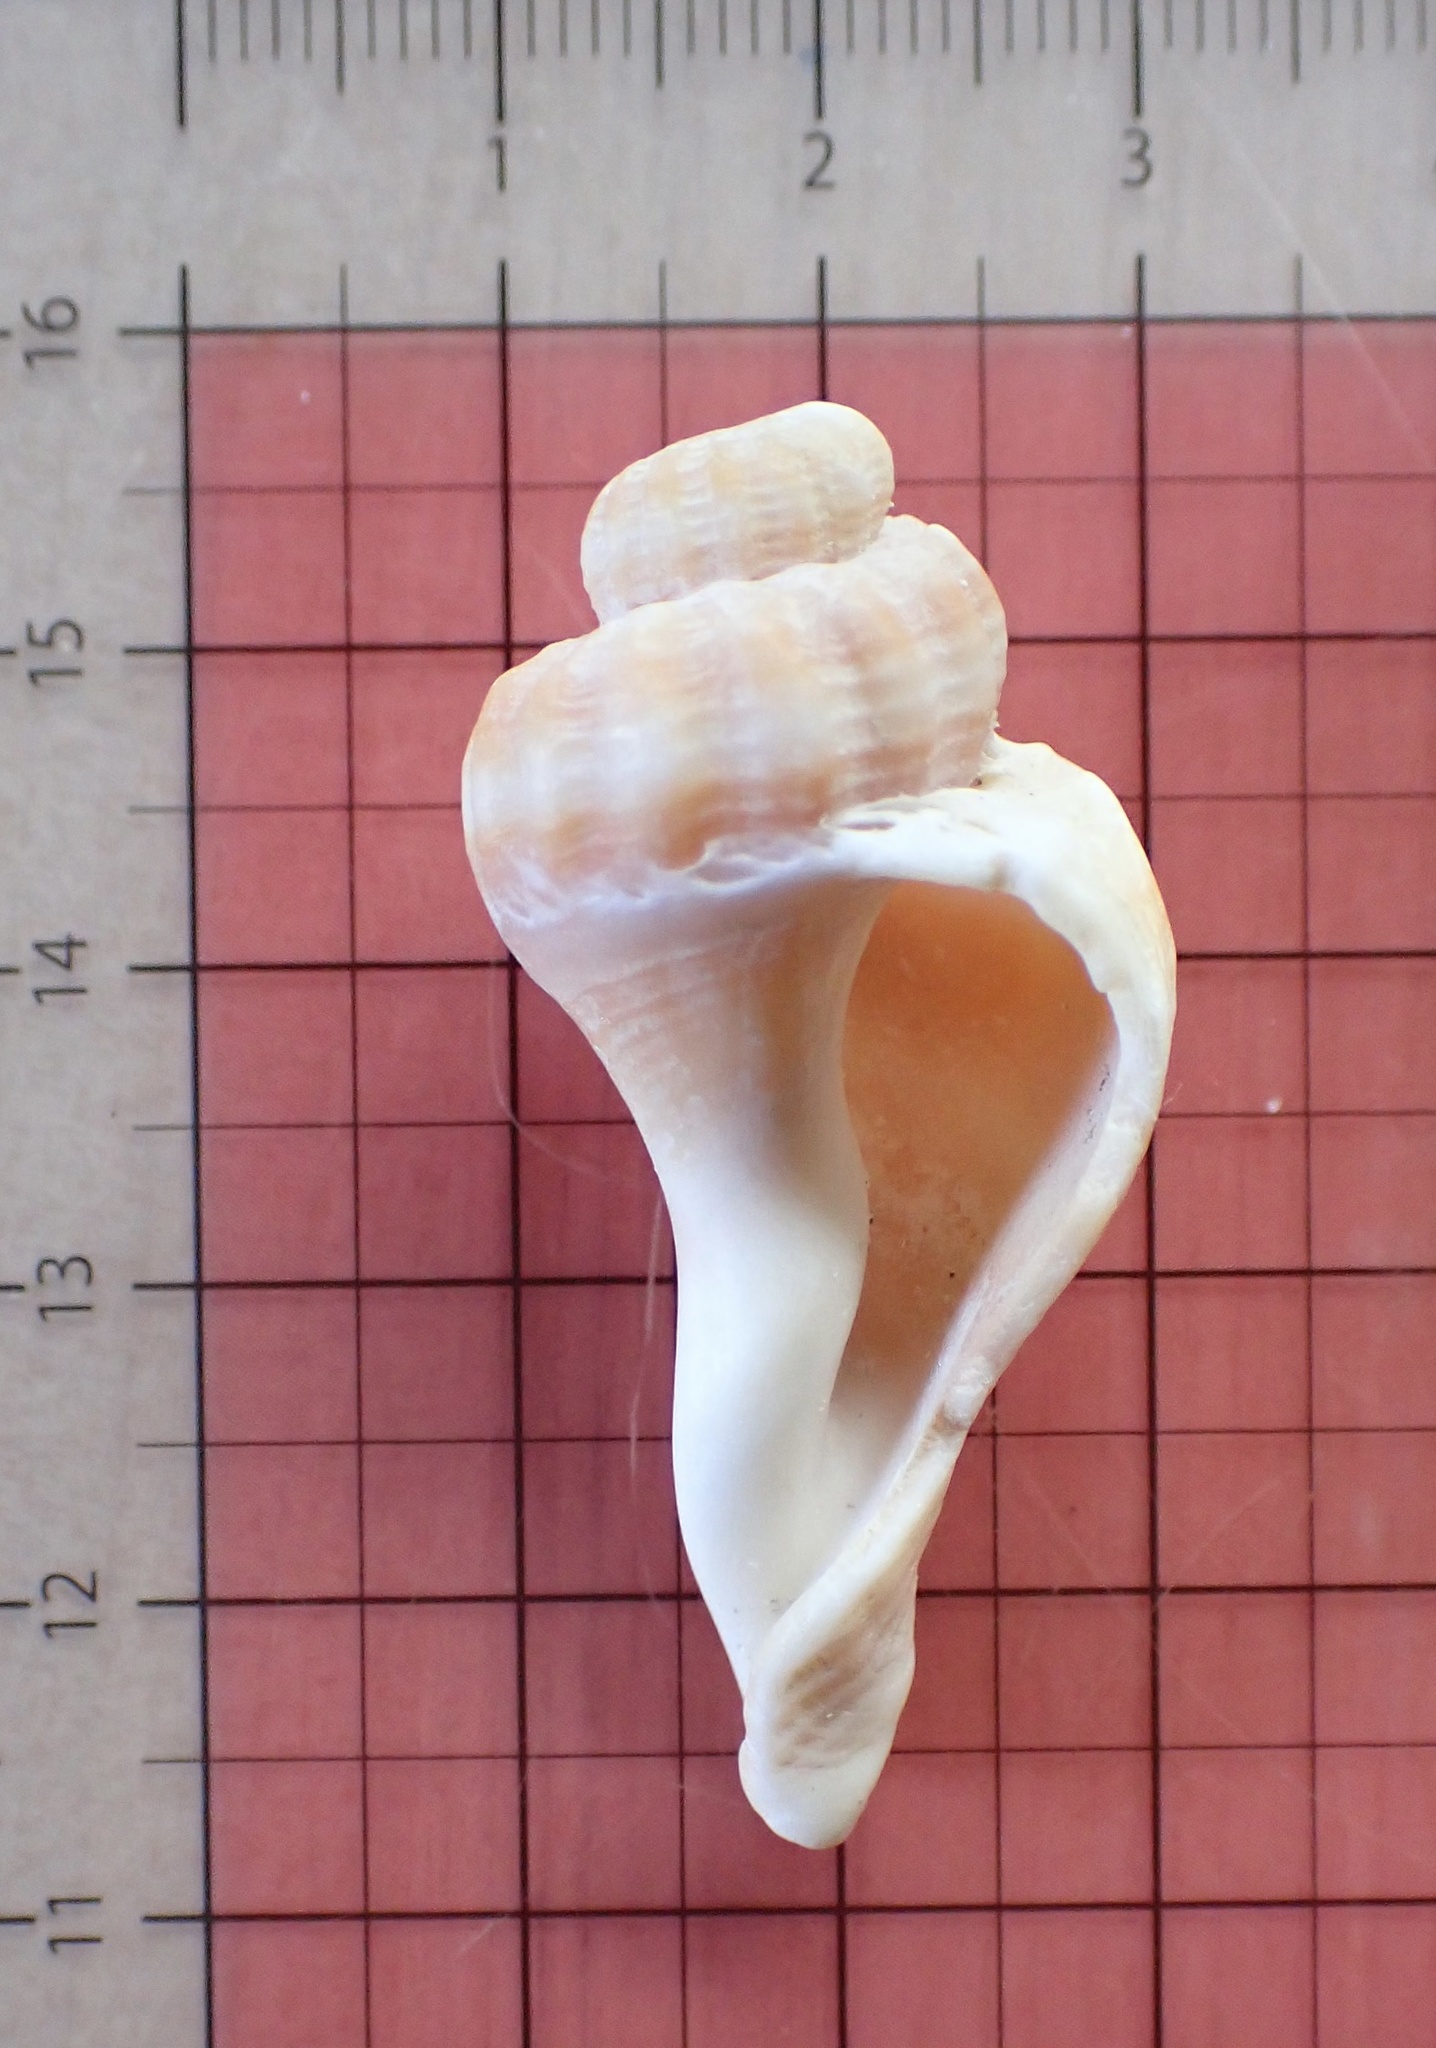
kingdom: Animalia
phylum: Mollusca
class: Gastropoda
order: Neogastropoda
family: Melongenidae
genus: Melongena
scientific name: Melongena corona
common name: American crown conch
